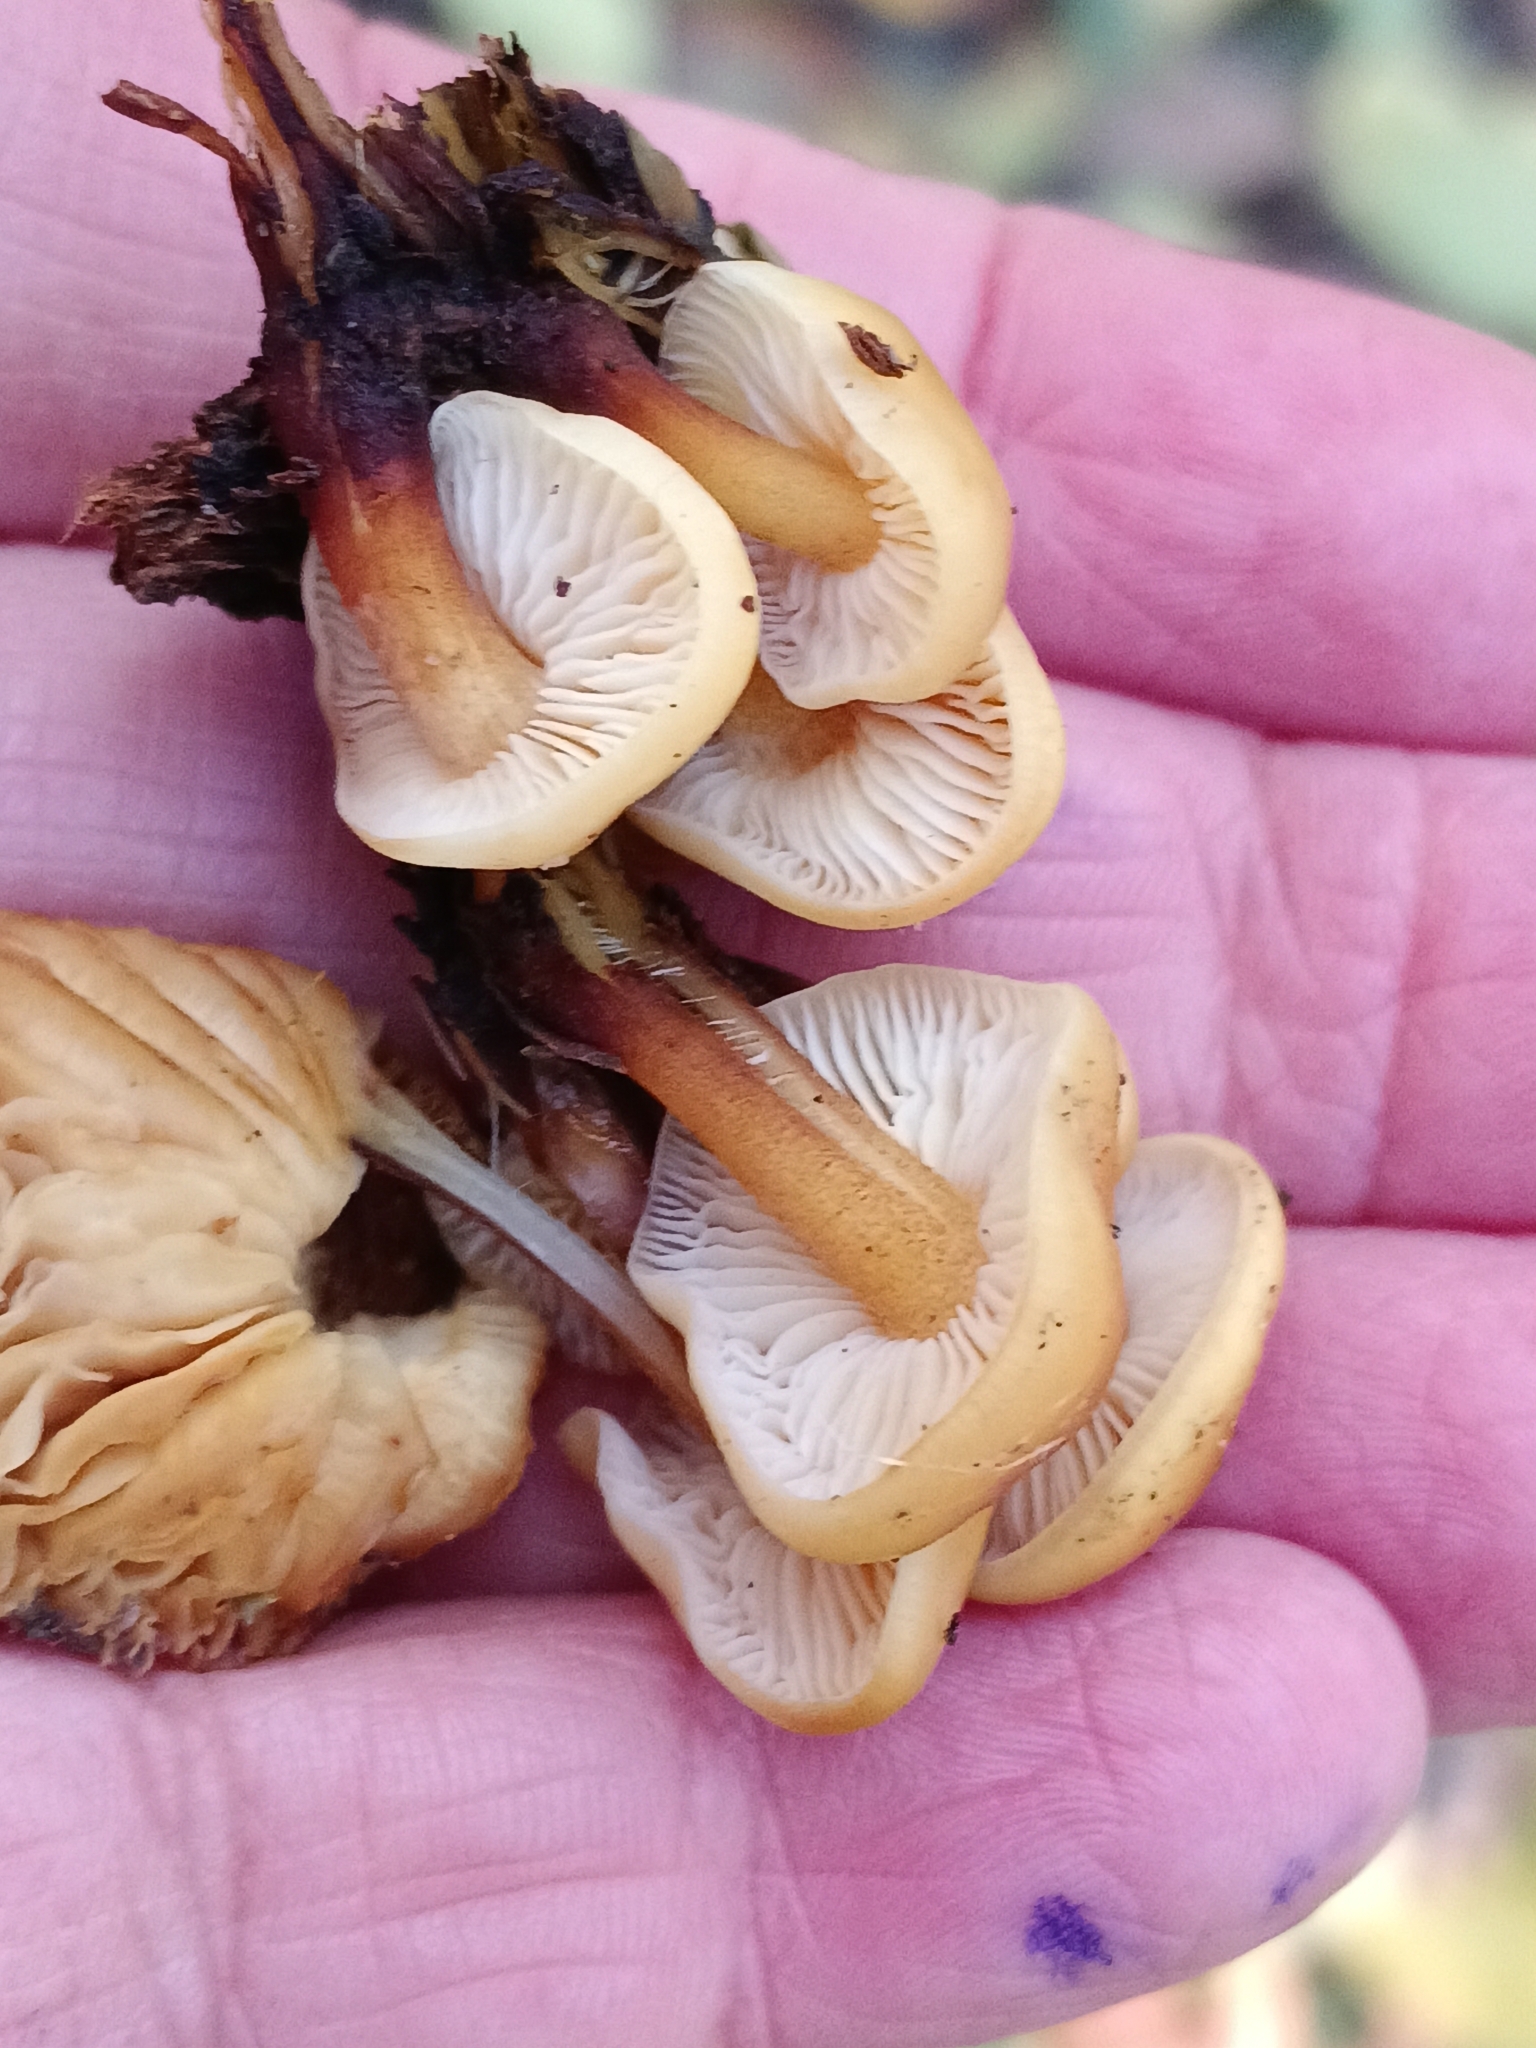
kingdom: Fungi
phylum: Basidiomycota
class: Agaricomycetes
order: Agaricales
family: Physalacriaceae
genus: Flammulina
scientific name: Flammulina
